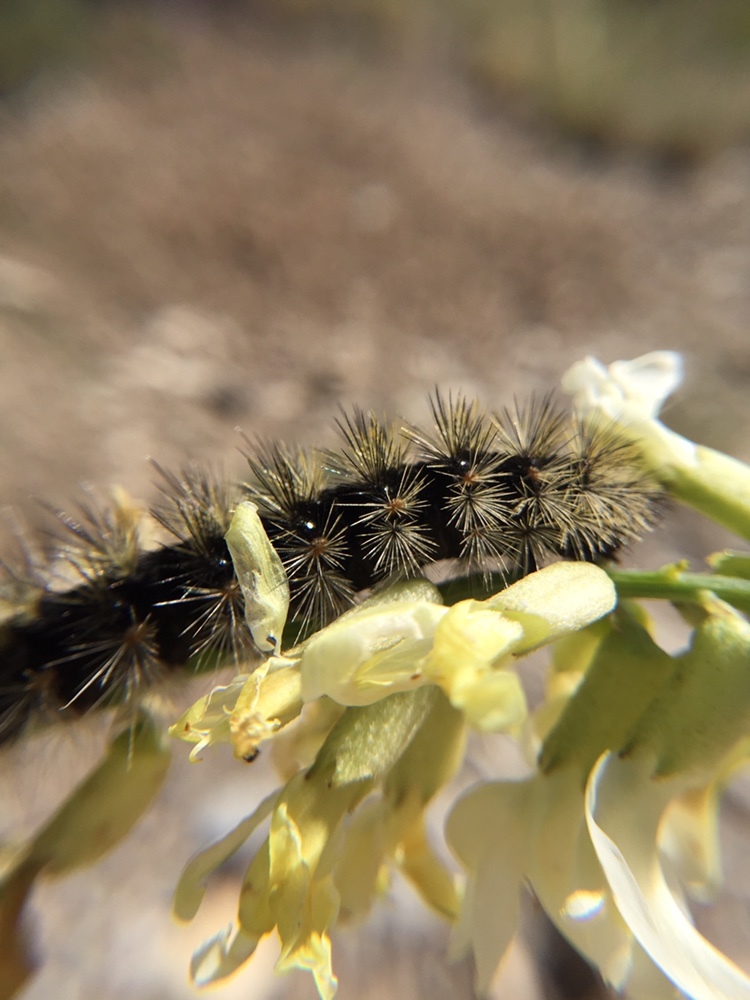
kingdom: Animalia
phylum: Arthropoda
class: Insecta
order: Lepidoptera
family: Erebidae
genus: Apantesis
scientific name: Apantesis incorrupta
